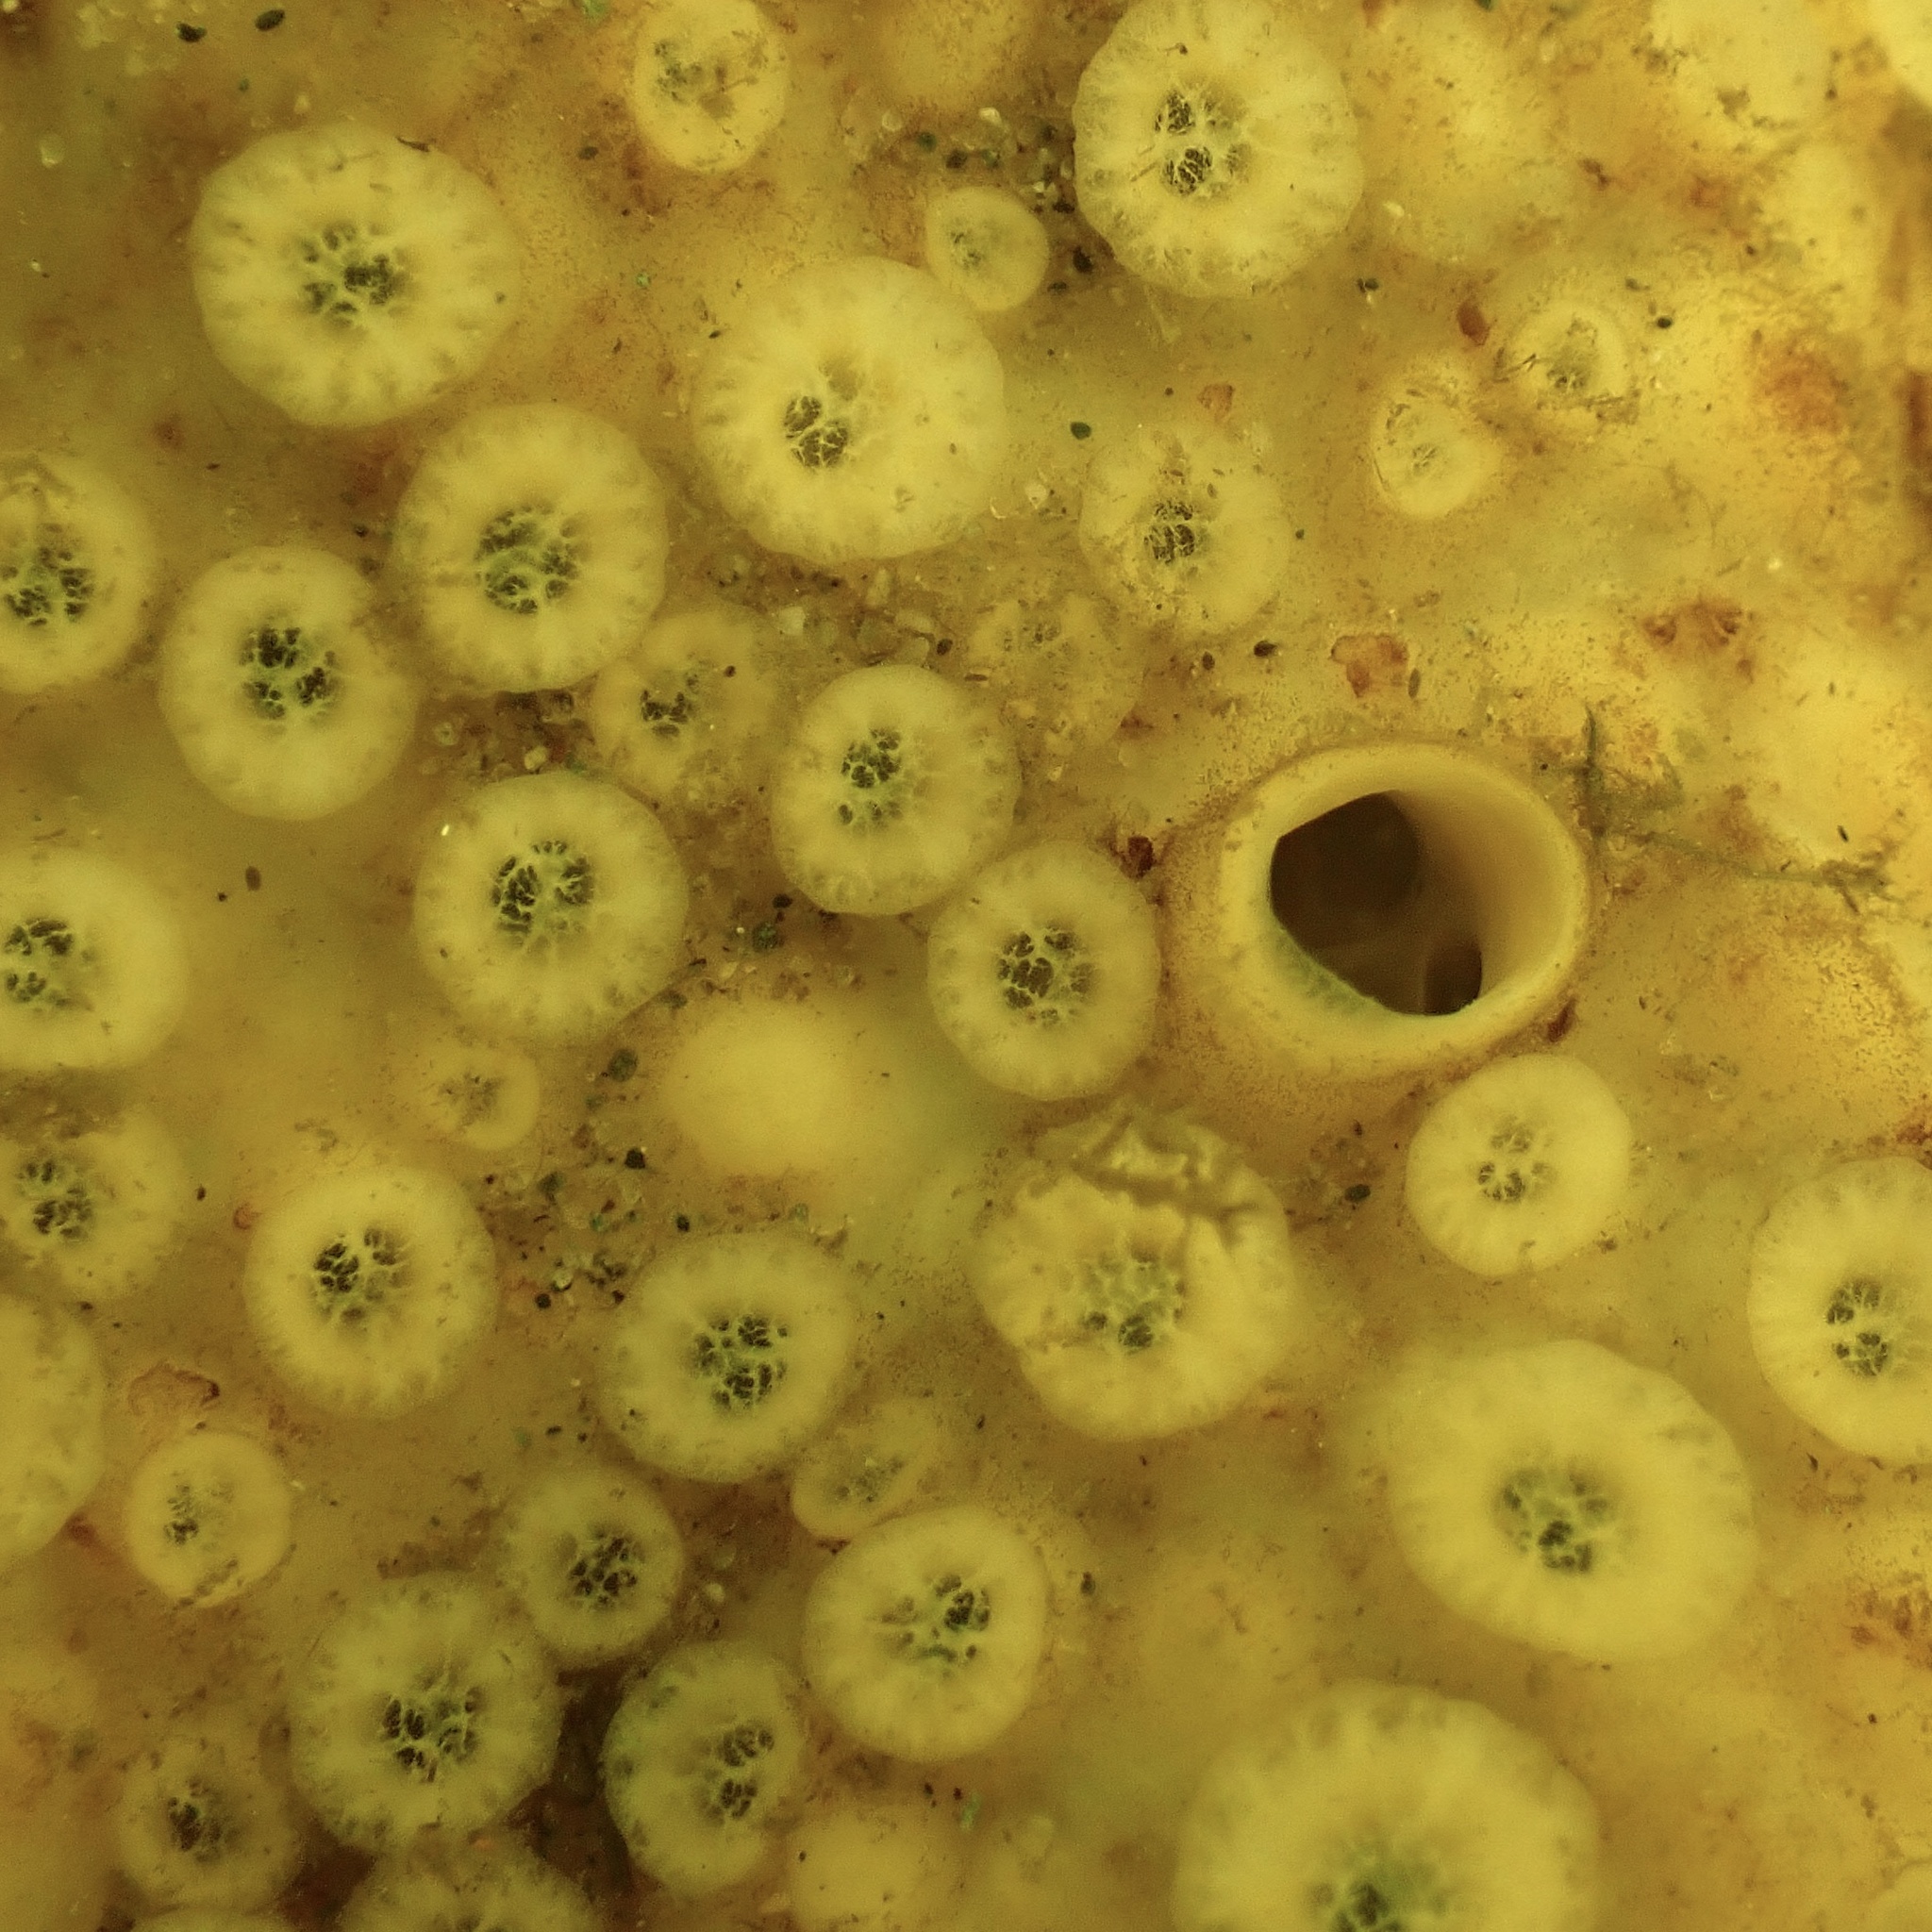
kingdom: Animalia
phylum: Porifera
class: Demospongiae
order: Clionaida
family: Clionaidae
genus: Cliona
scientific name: Cliona celata
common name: Boring sponge
